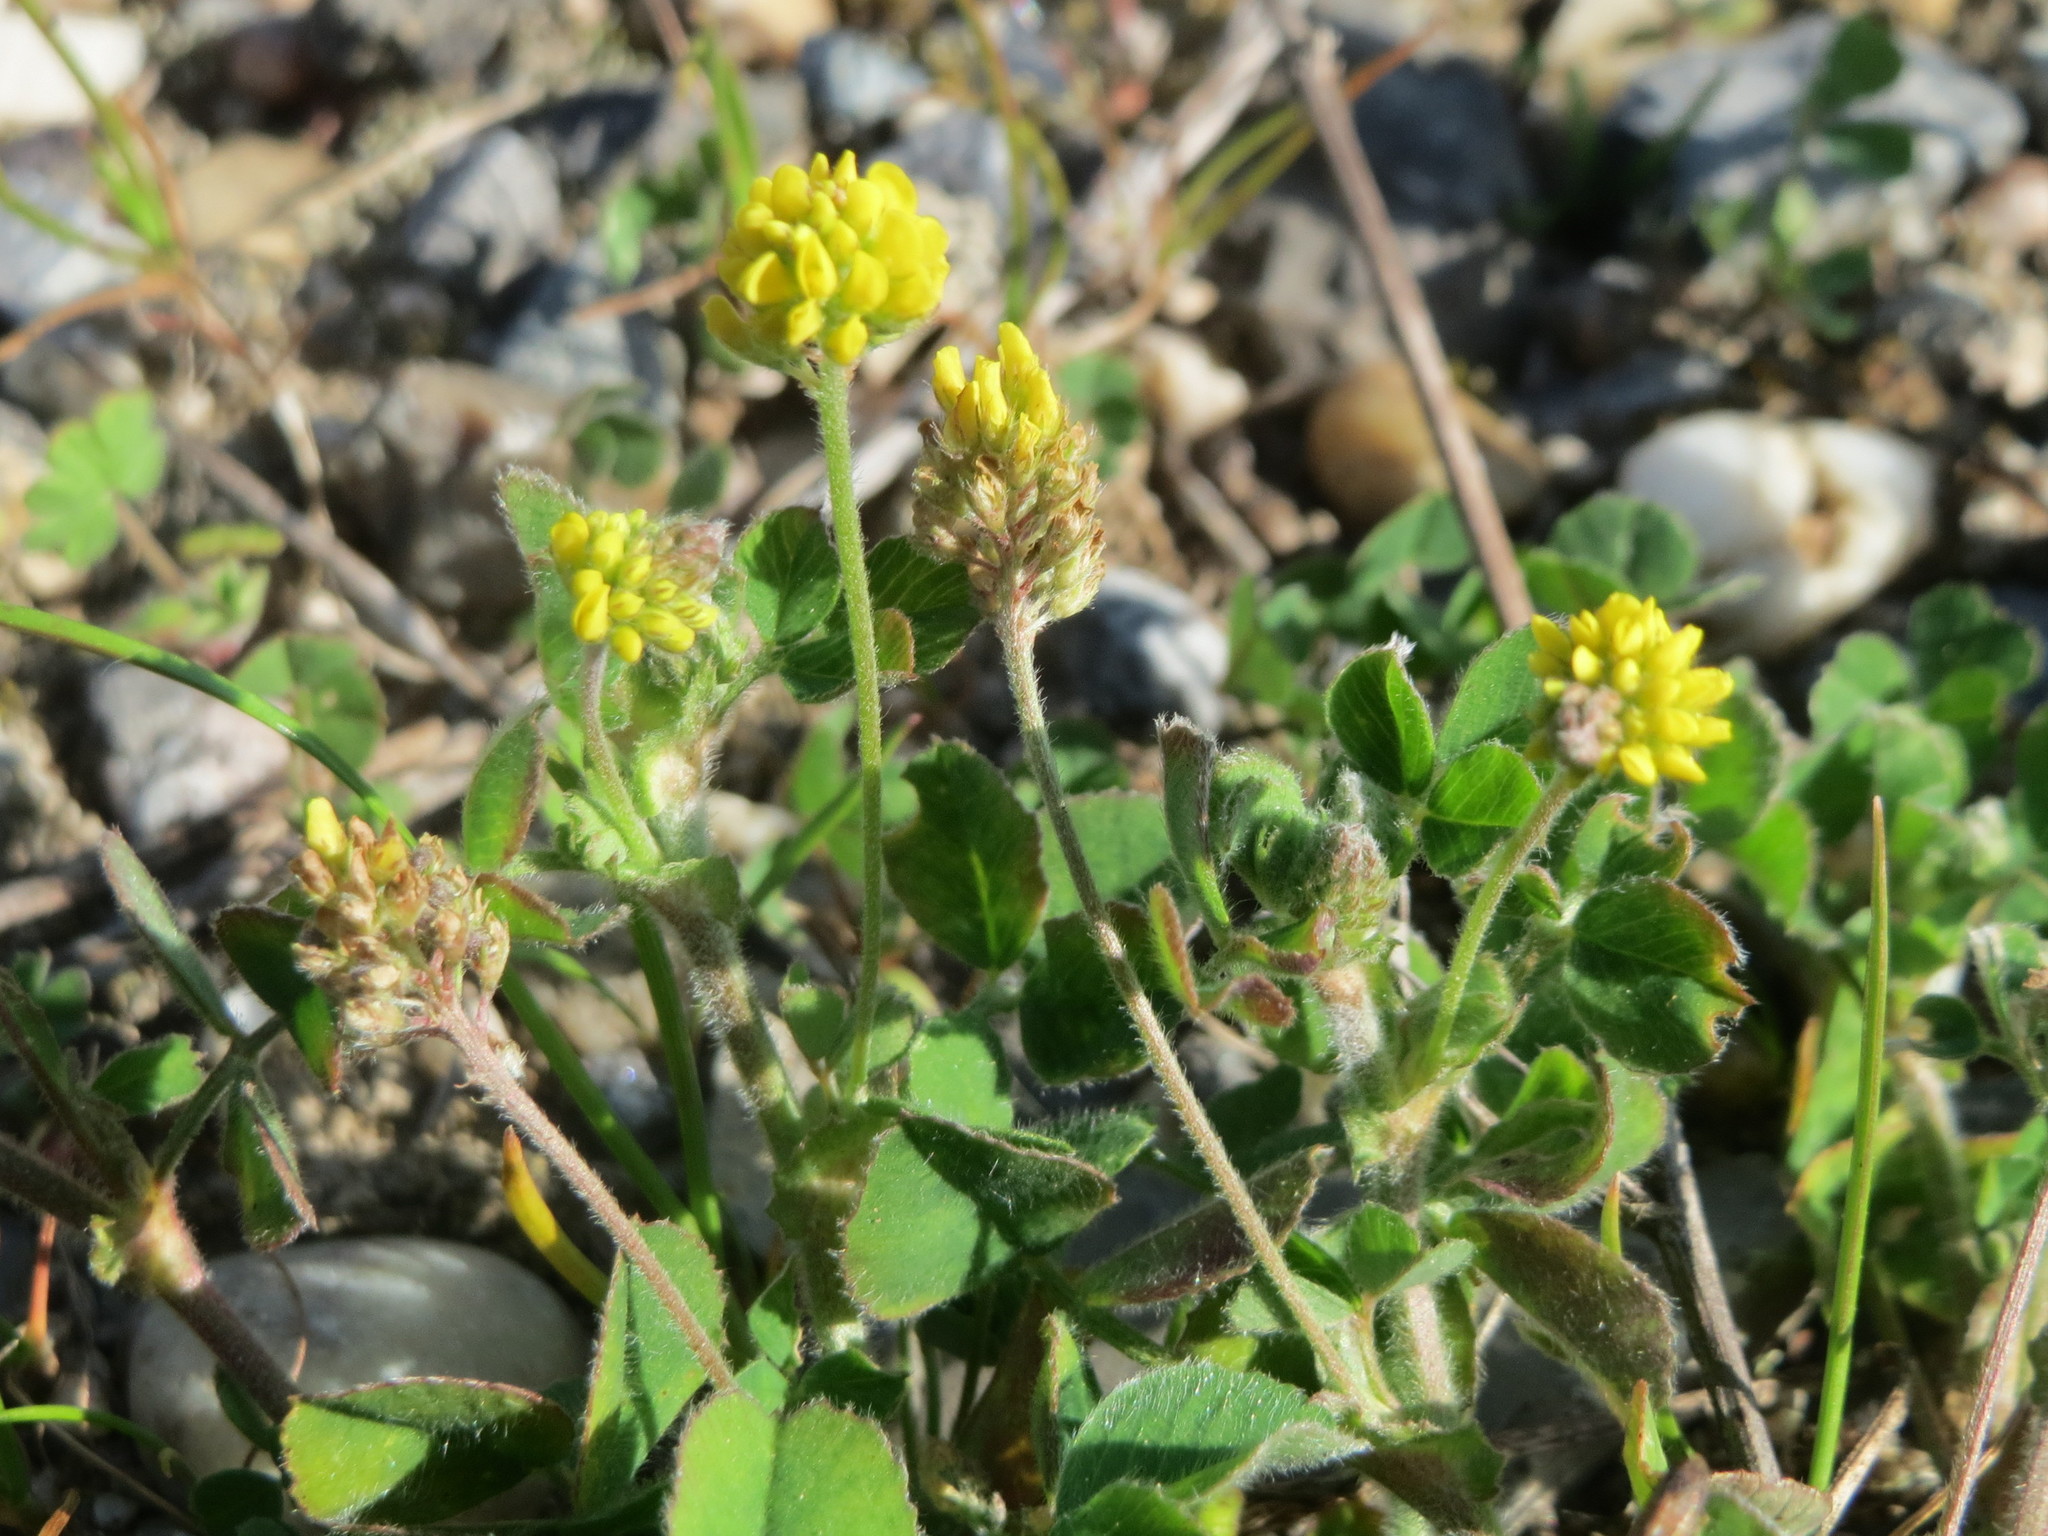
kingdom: Plantae
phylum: Tracheophyta
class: Magnoliopsida
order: Fabales
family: Fabaceae
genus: Medicago
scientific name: Medicago lupulina
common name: Black medick
